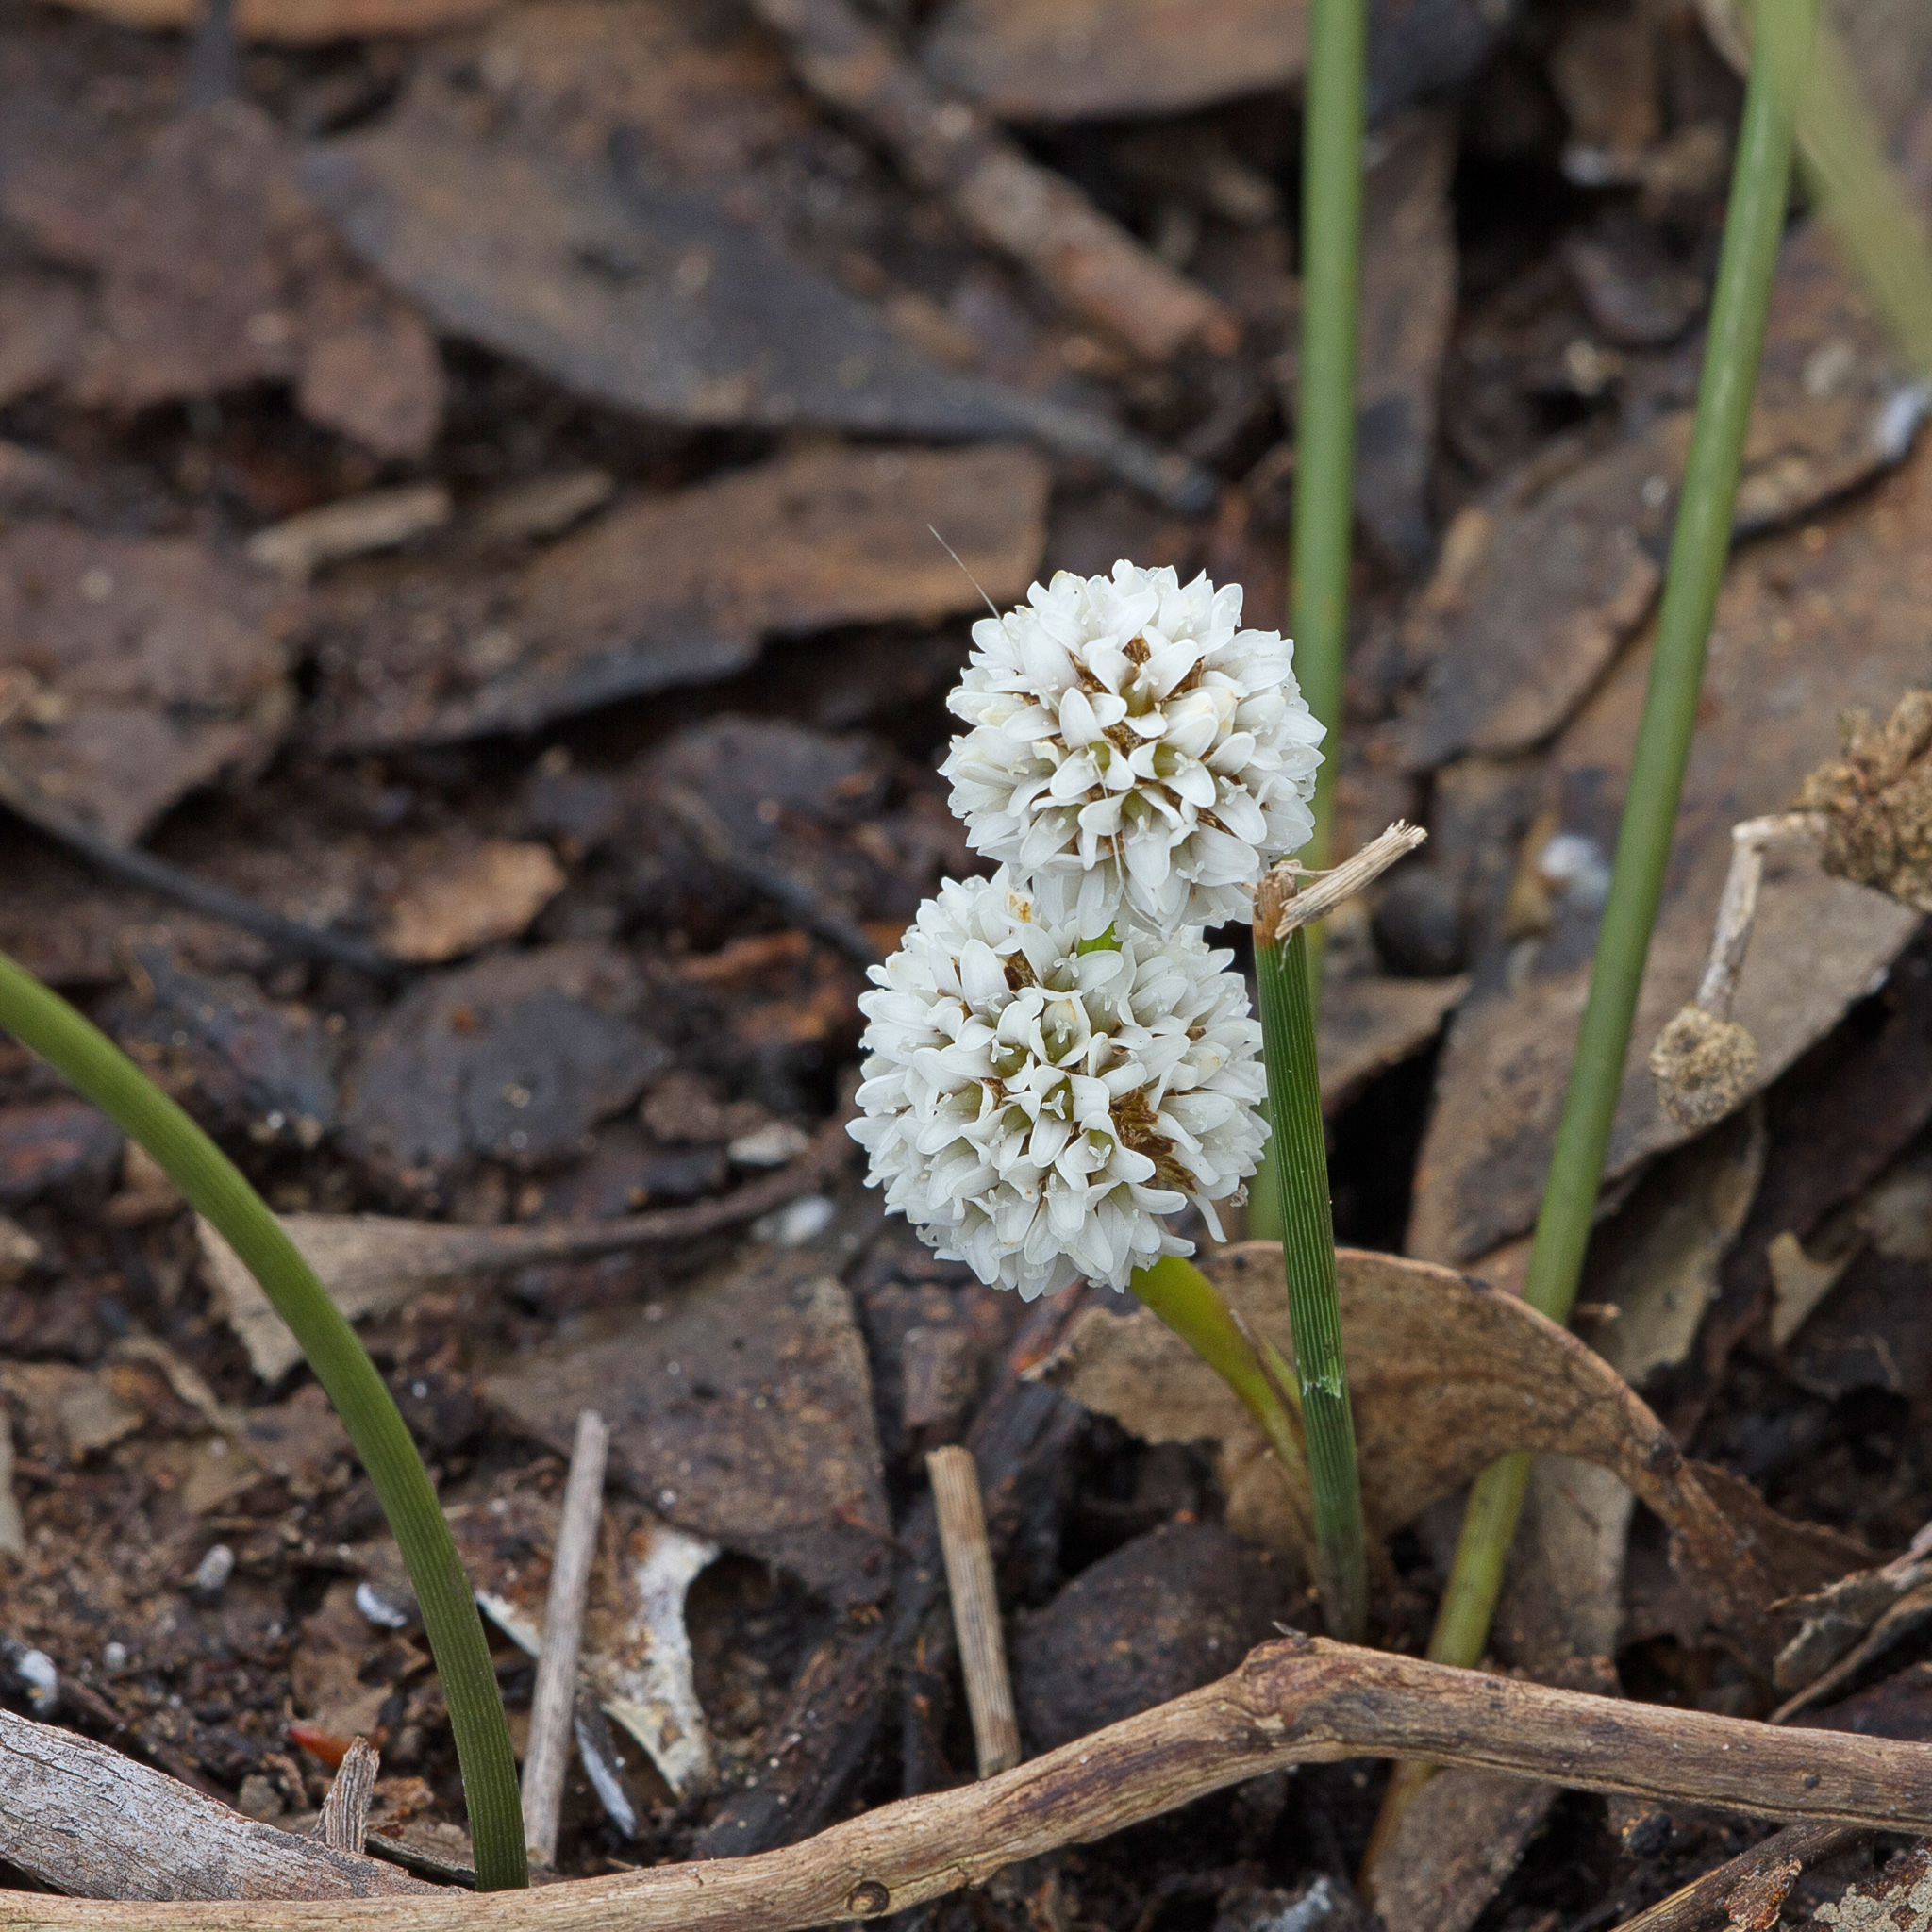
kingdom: Plantae
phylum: Tracheophyta
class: Liliopsida
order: Asparagales
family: Asparagaceae
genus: Lomandra
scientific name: Lomandra juncea
